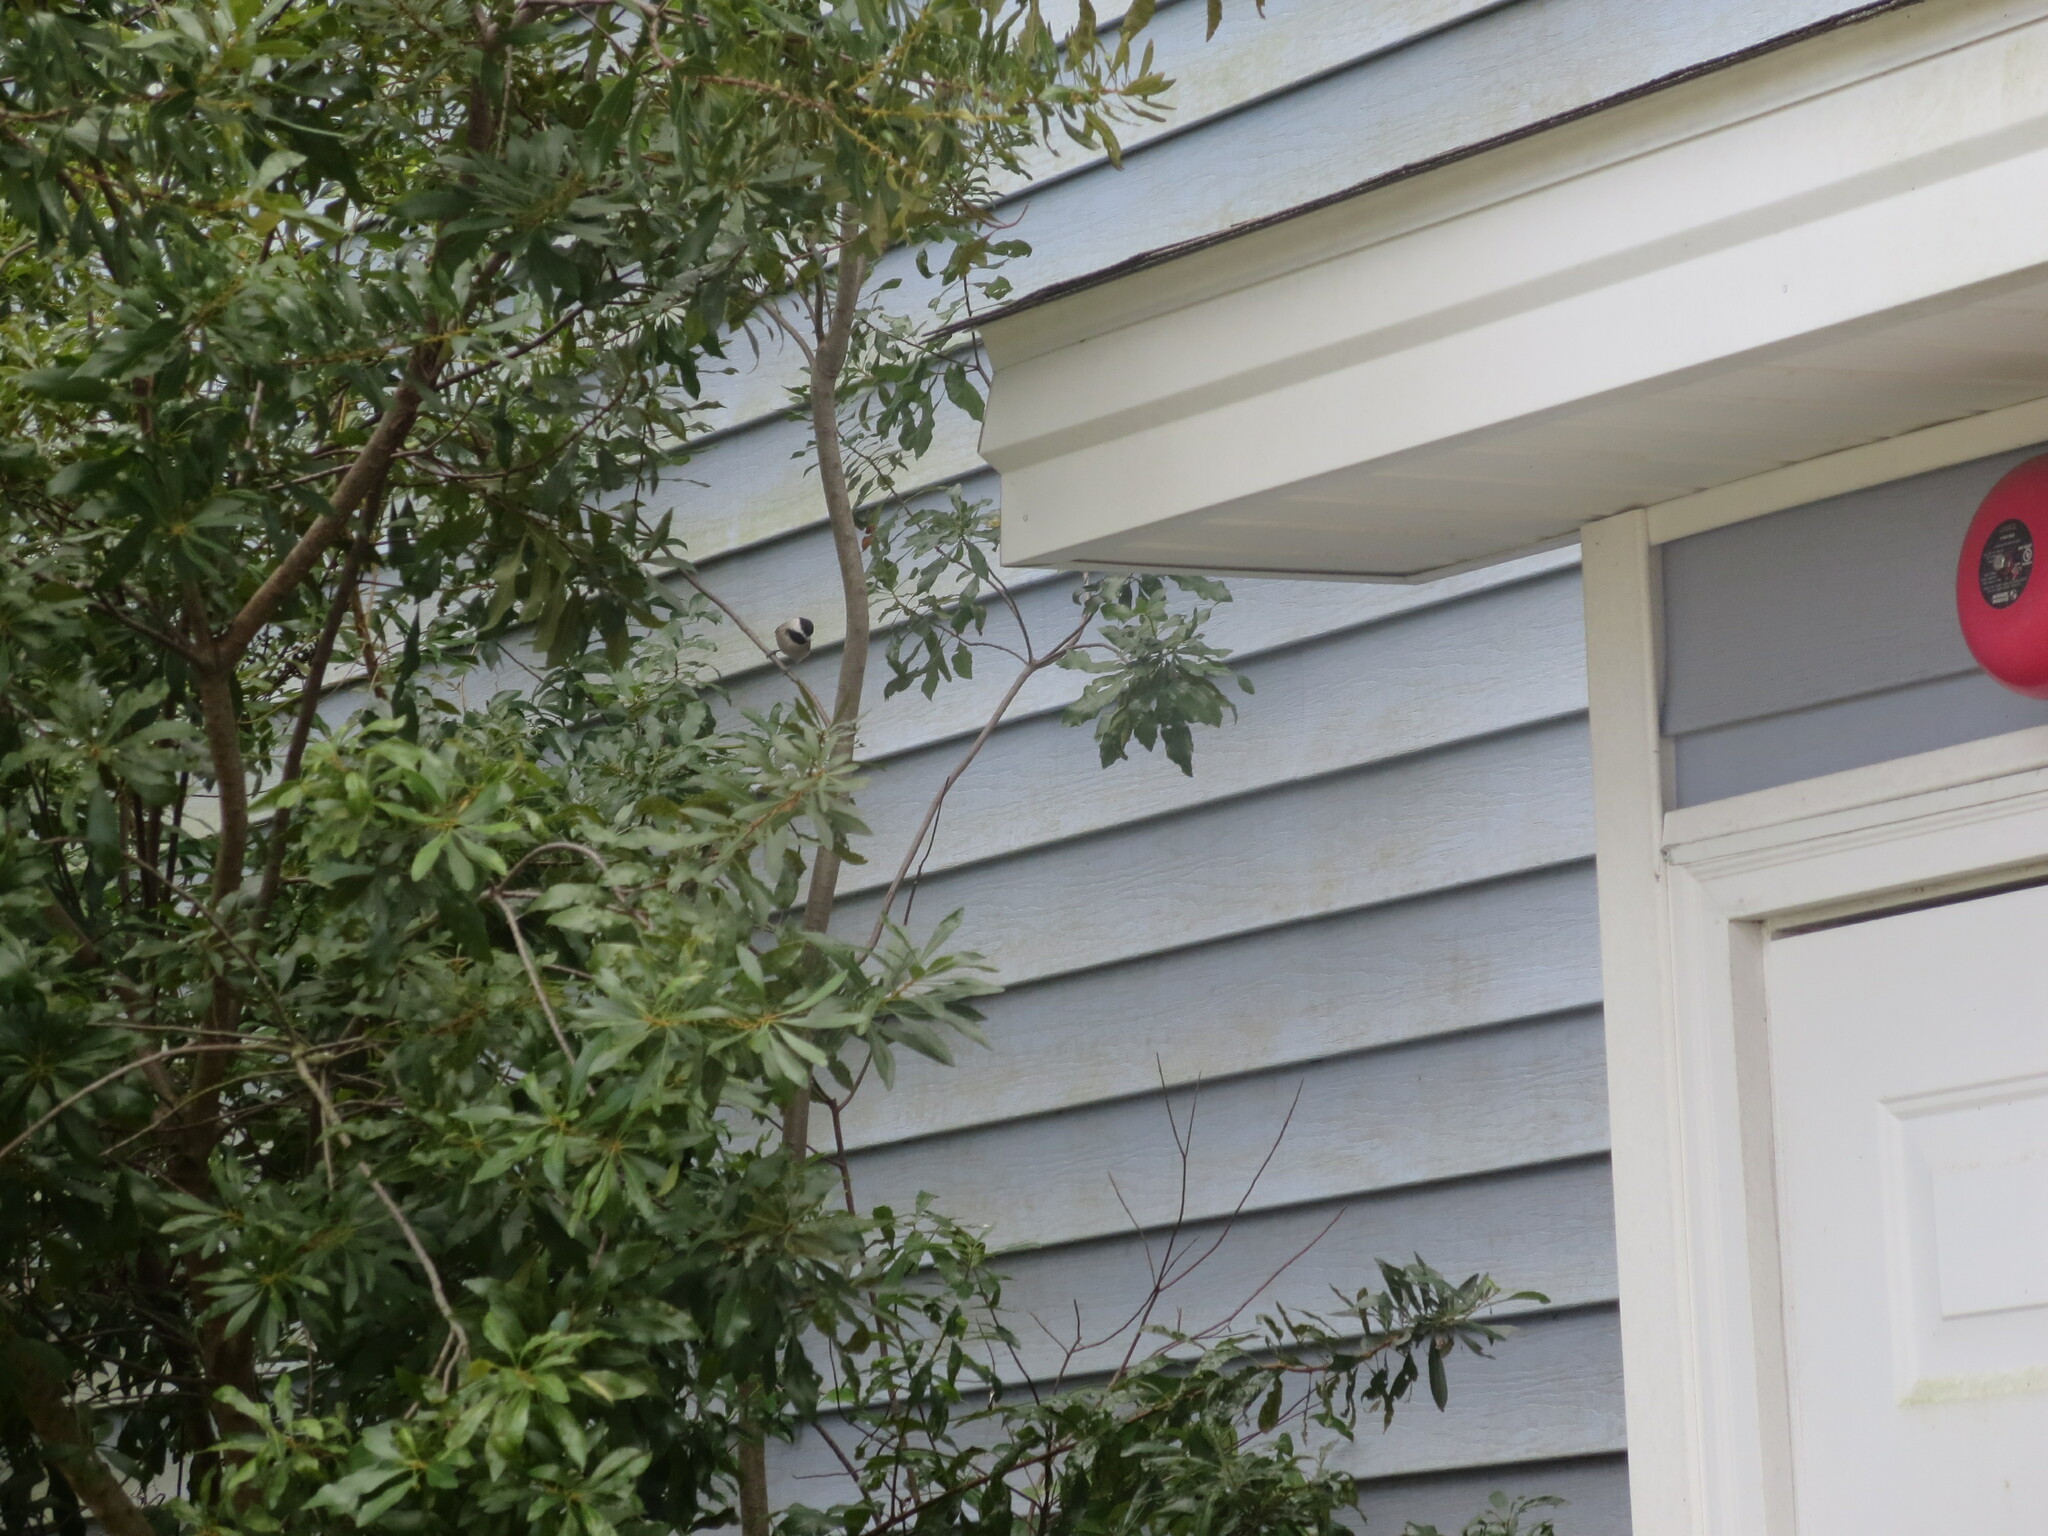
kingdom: Animalia
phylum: Chordata
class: Aves
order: Passeriformes
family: Paridae
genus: Poecile
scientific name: Poecile carolinensis
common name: Carolina chickadee
